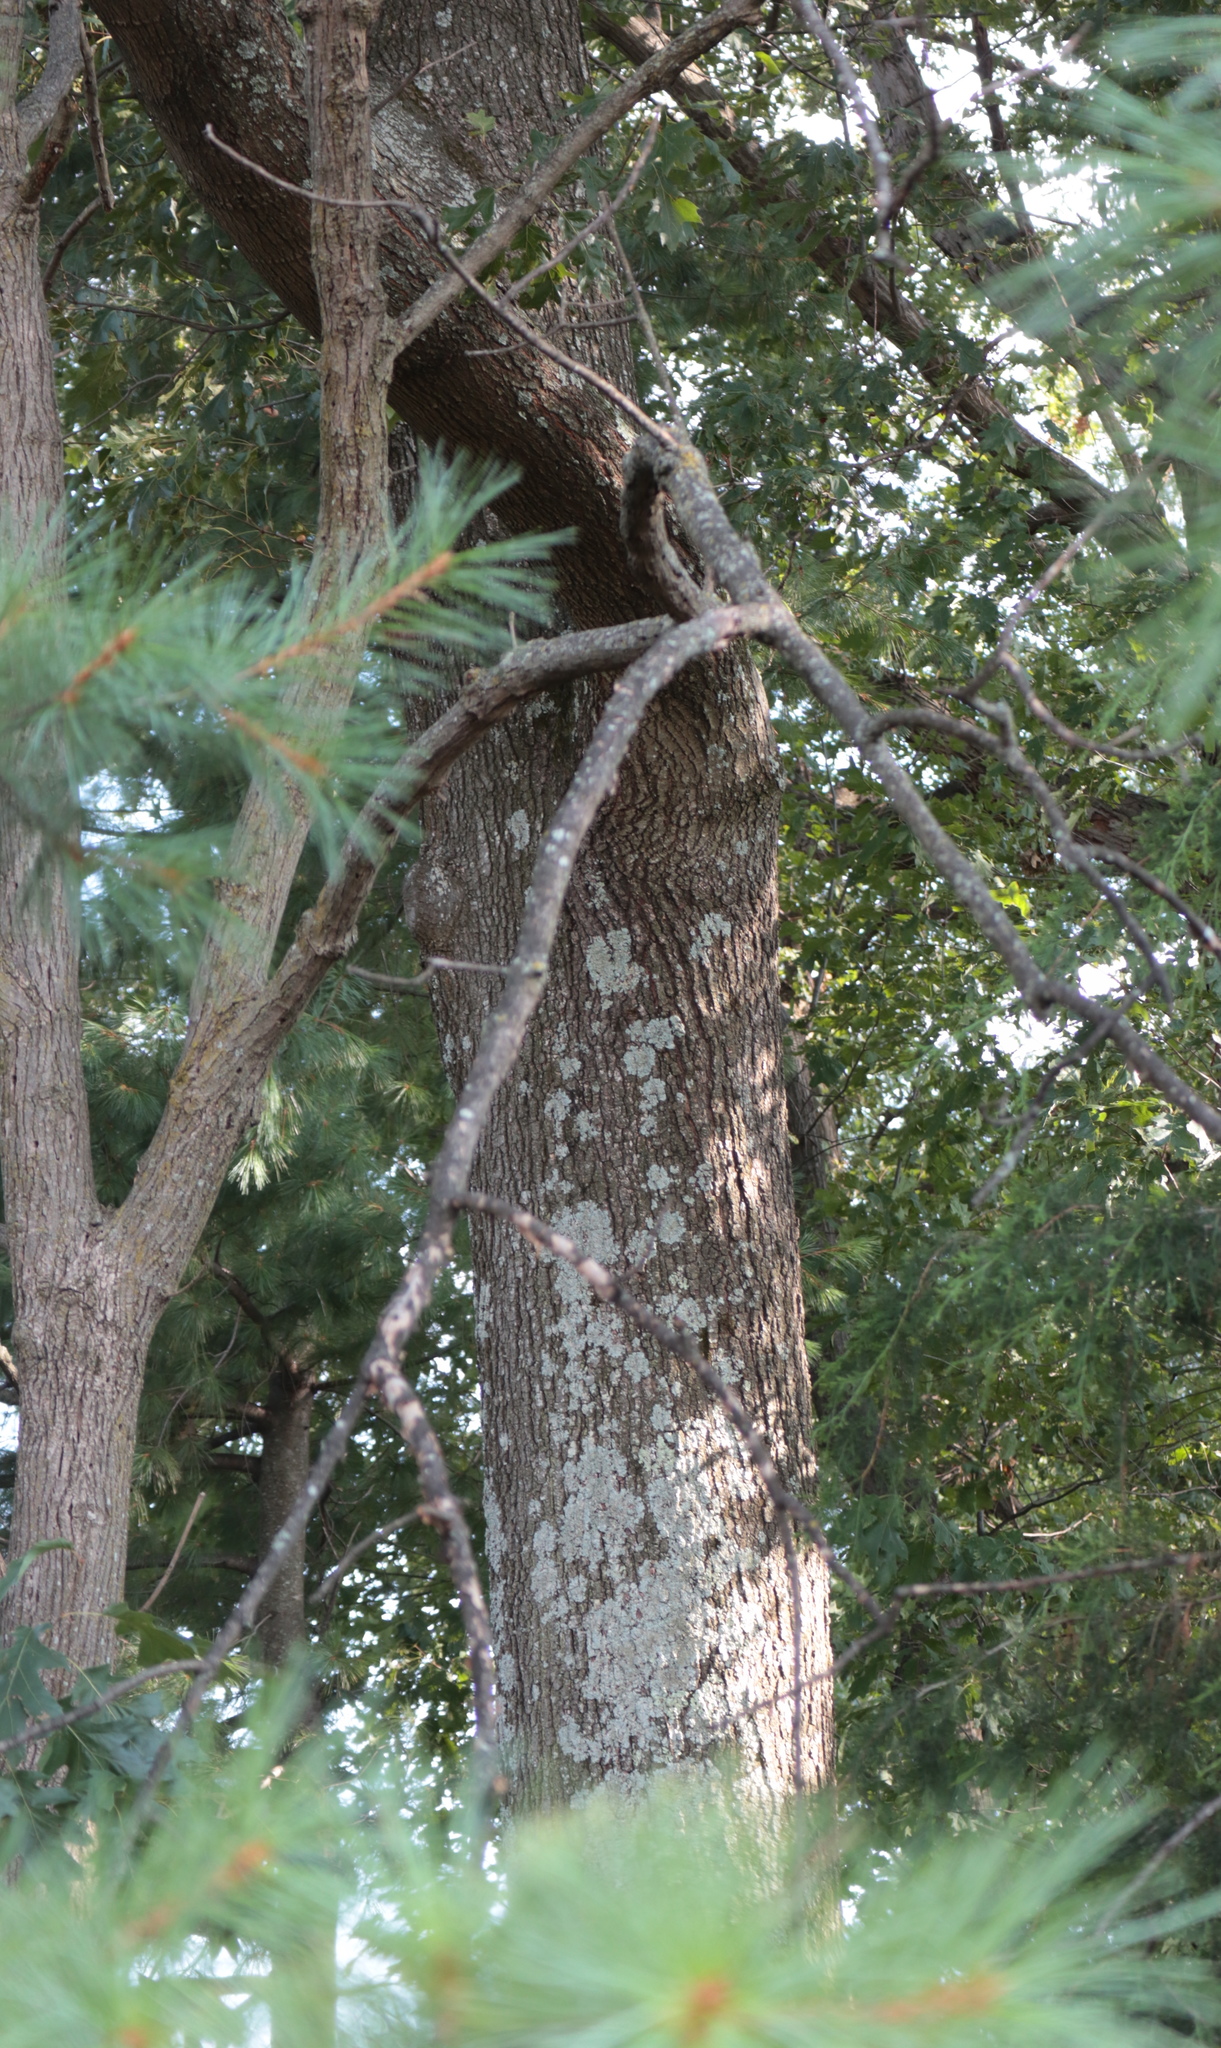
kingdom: Plantae
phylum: Tracheophyta
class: Magnoliopsida
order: Fagales
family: Fagaceae
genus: Quercus
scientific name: Quercus velutina
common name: Black oak
